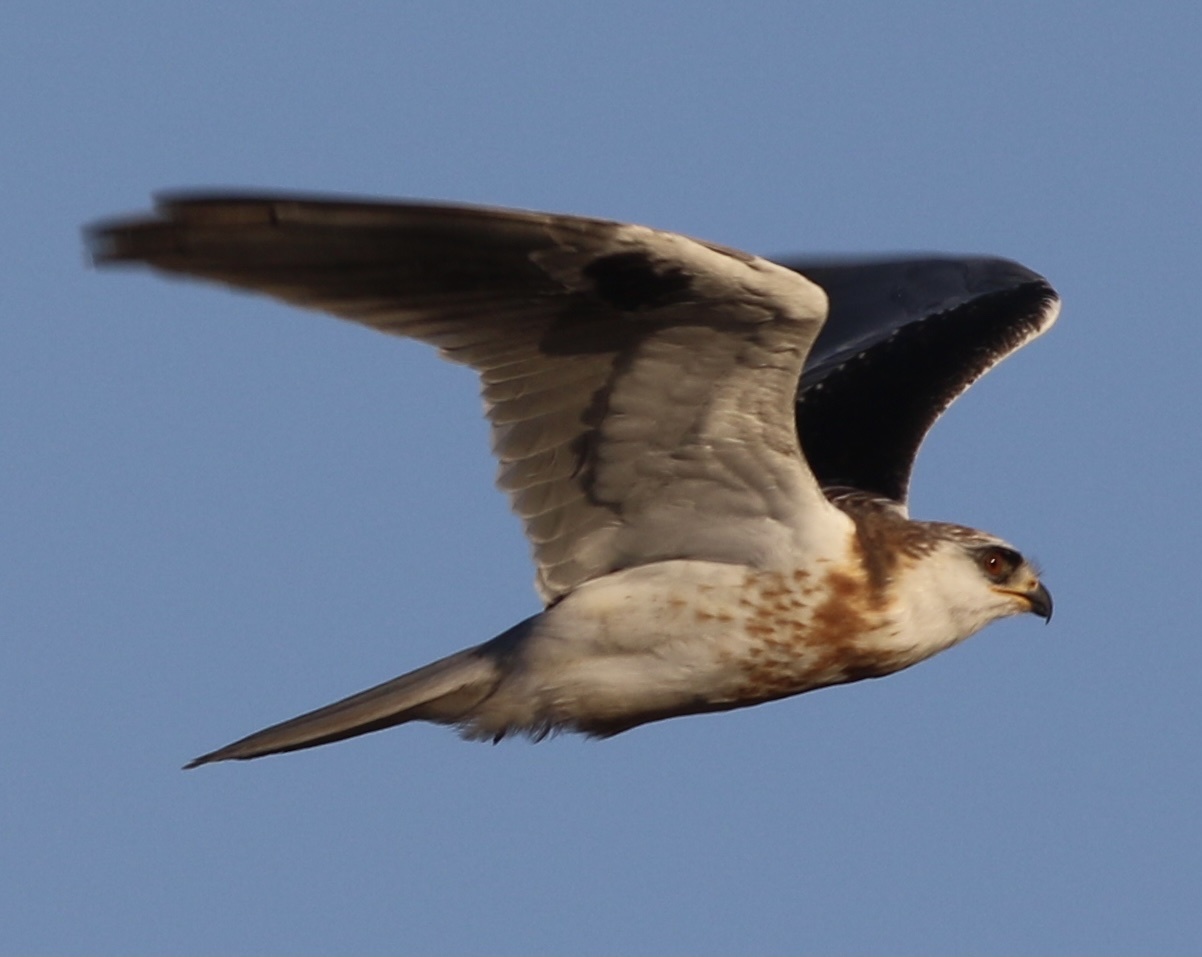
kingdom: Animalia
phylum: Chordata
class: Aves
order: Accipitriformes
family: Accipitridae
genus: Elanus
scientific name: Elanus leucurus
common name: White-tailed kite
